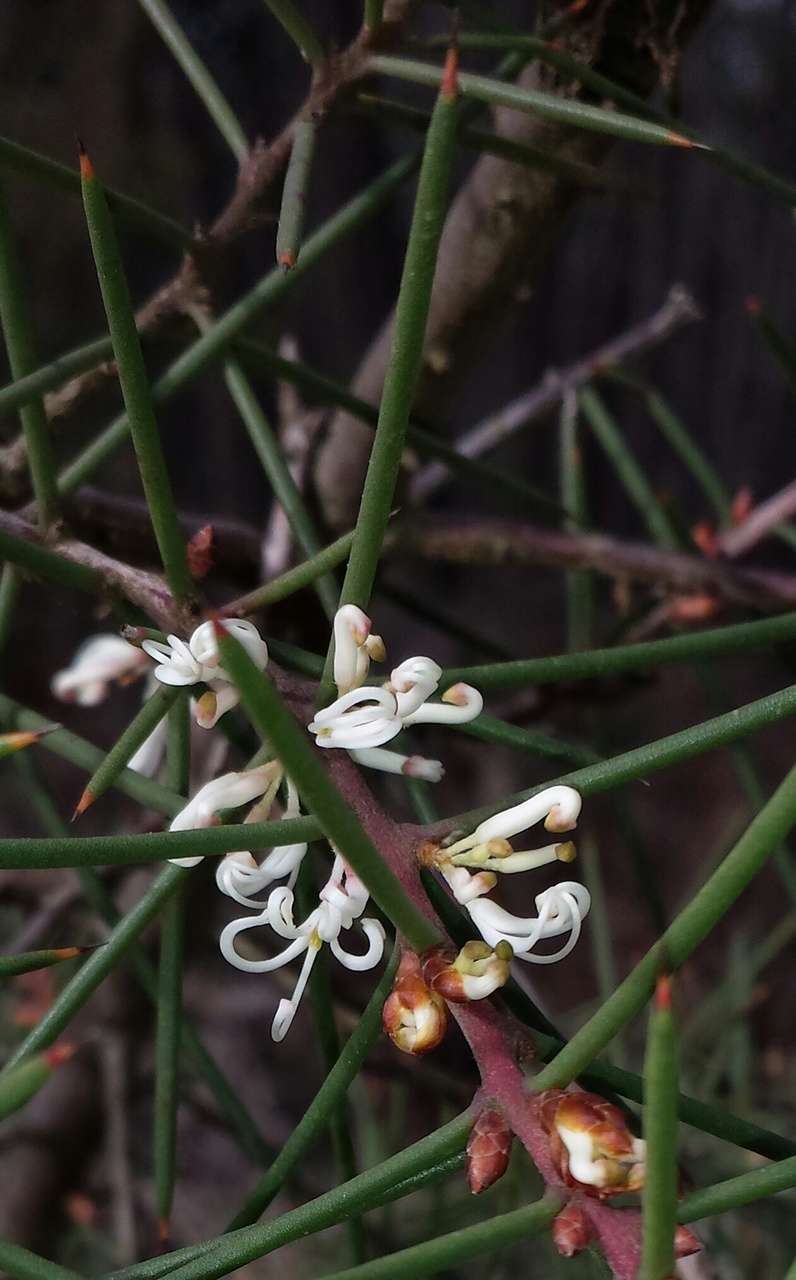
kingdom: Plantae
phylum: Tracheophyta
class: Magnoliopsida
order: Proteales
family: Proteaceae
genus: Hakea
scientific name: Hakea decurrens
